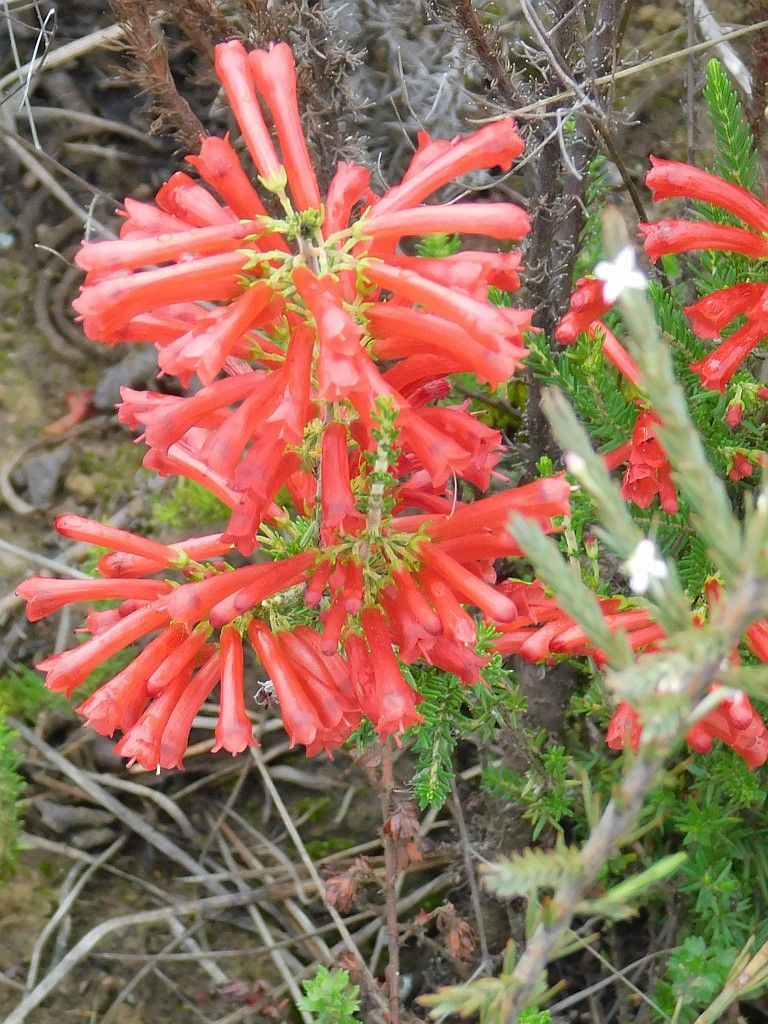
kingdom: Plantae
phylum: Tracheophyta
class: Magnoliopsida
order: Ericales
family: Ericaceae
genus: Erica
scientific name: Erica cruenta
